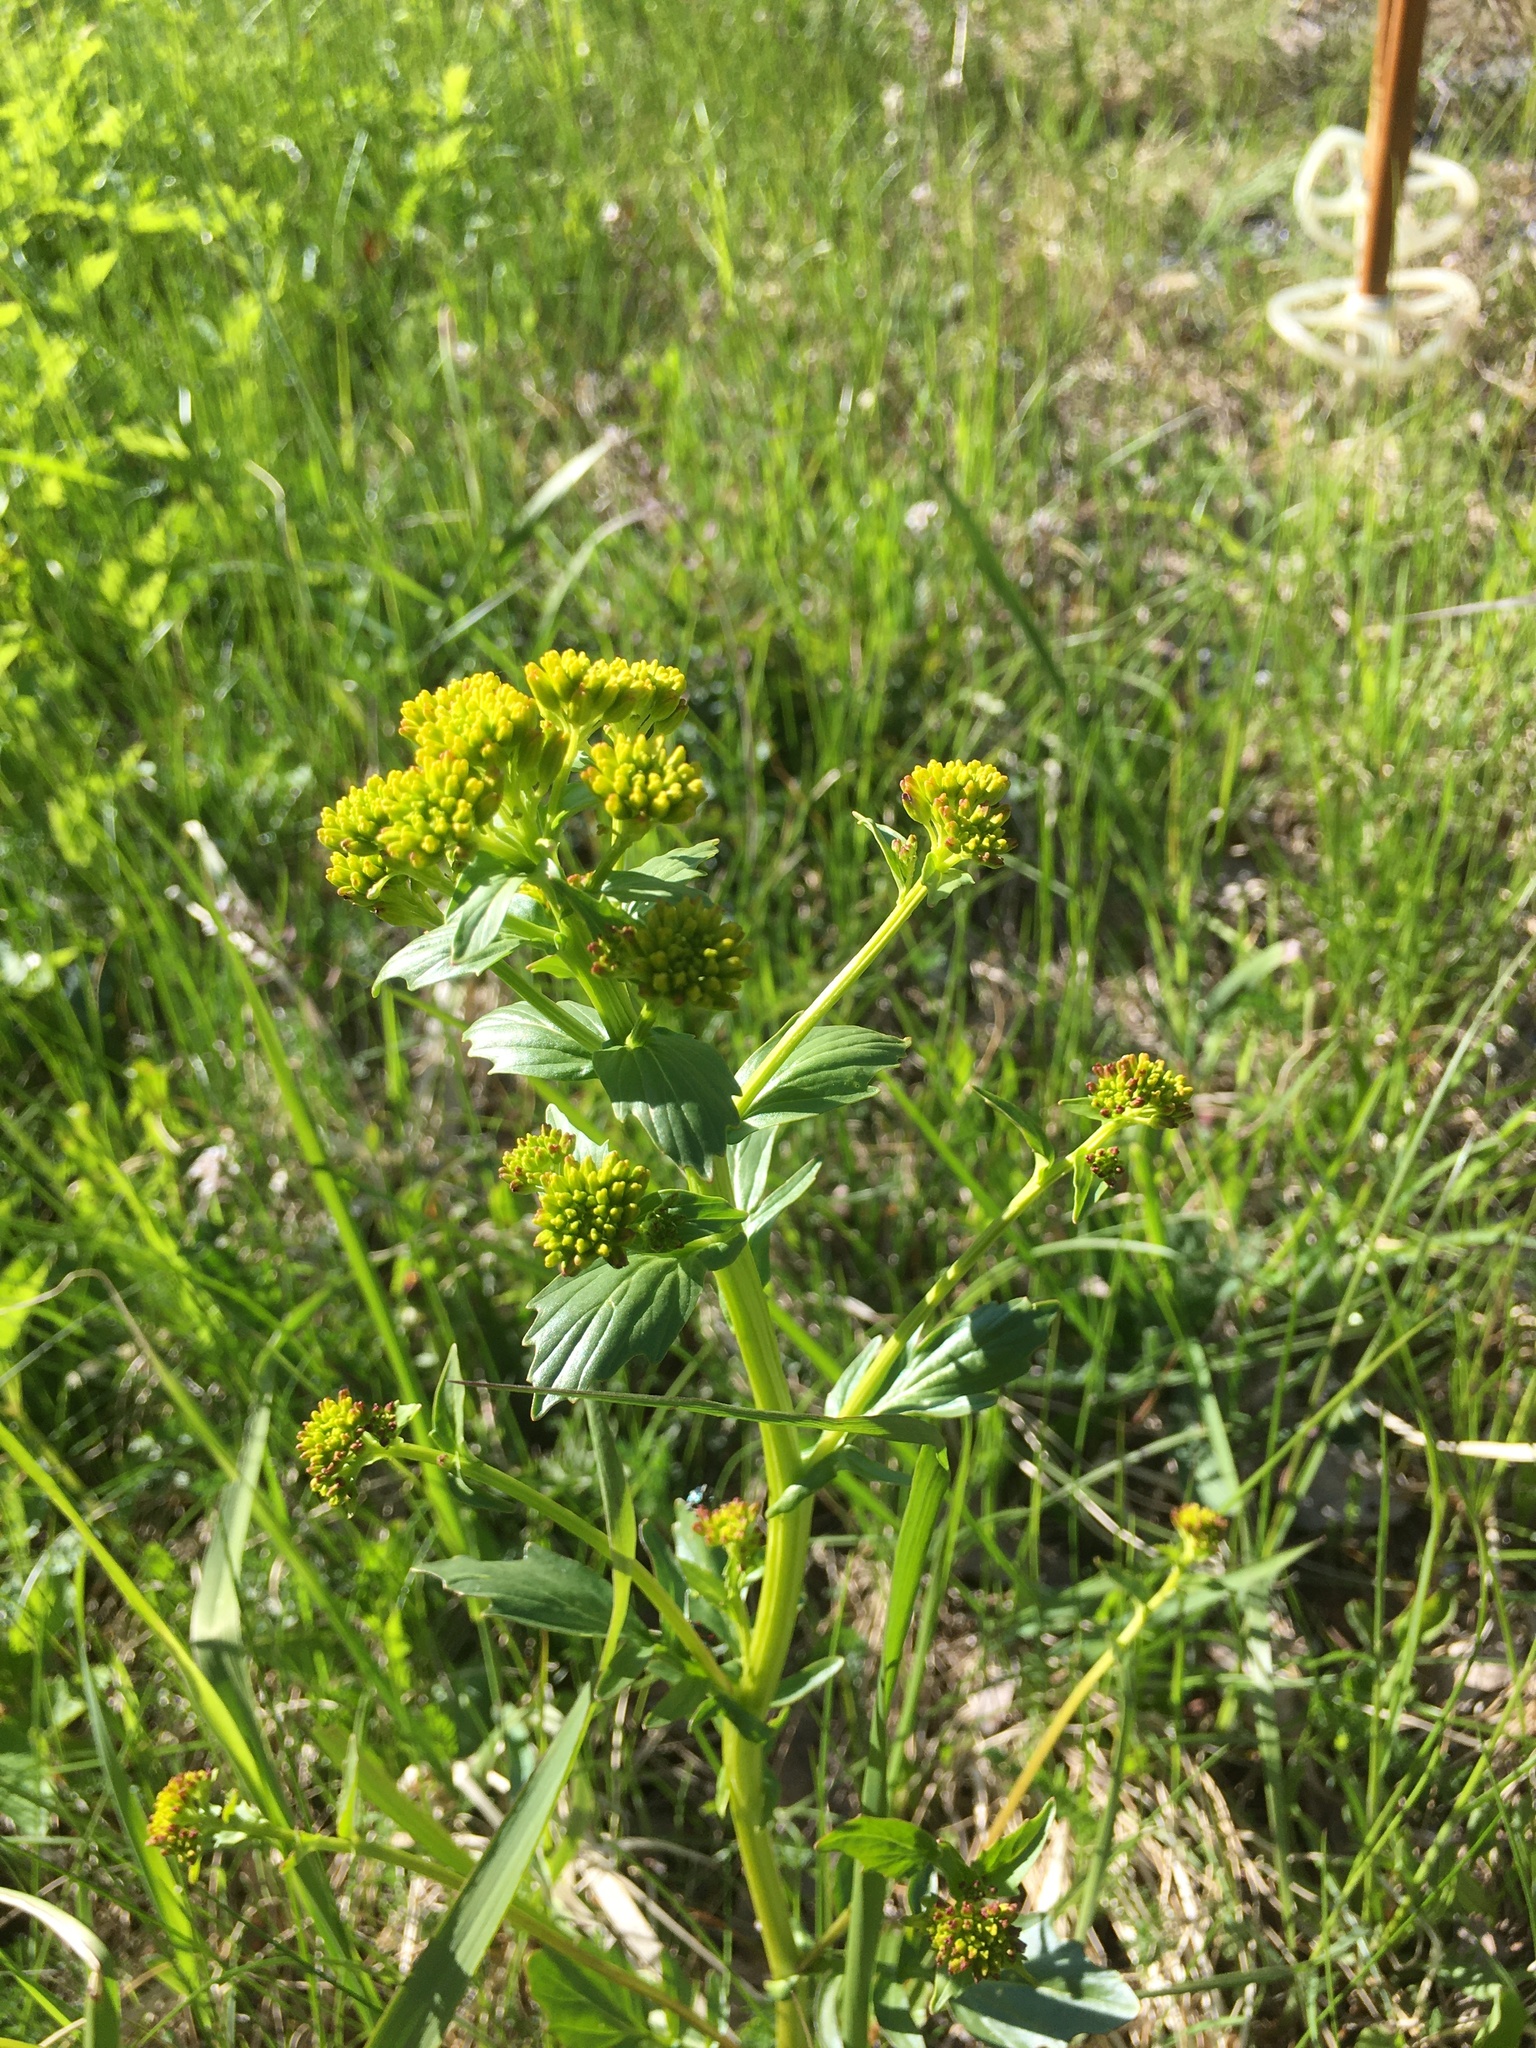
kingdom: Plantae
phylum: Tracheophyta
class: Magnoliopsida
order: Brassicales
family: Brassicaceae
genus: Barbarea
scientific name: Barbarea vulgaris
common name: Cressy-greens
